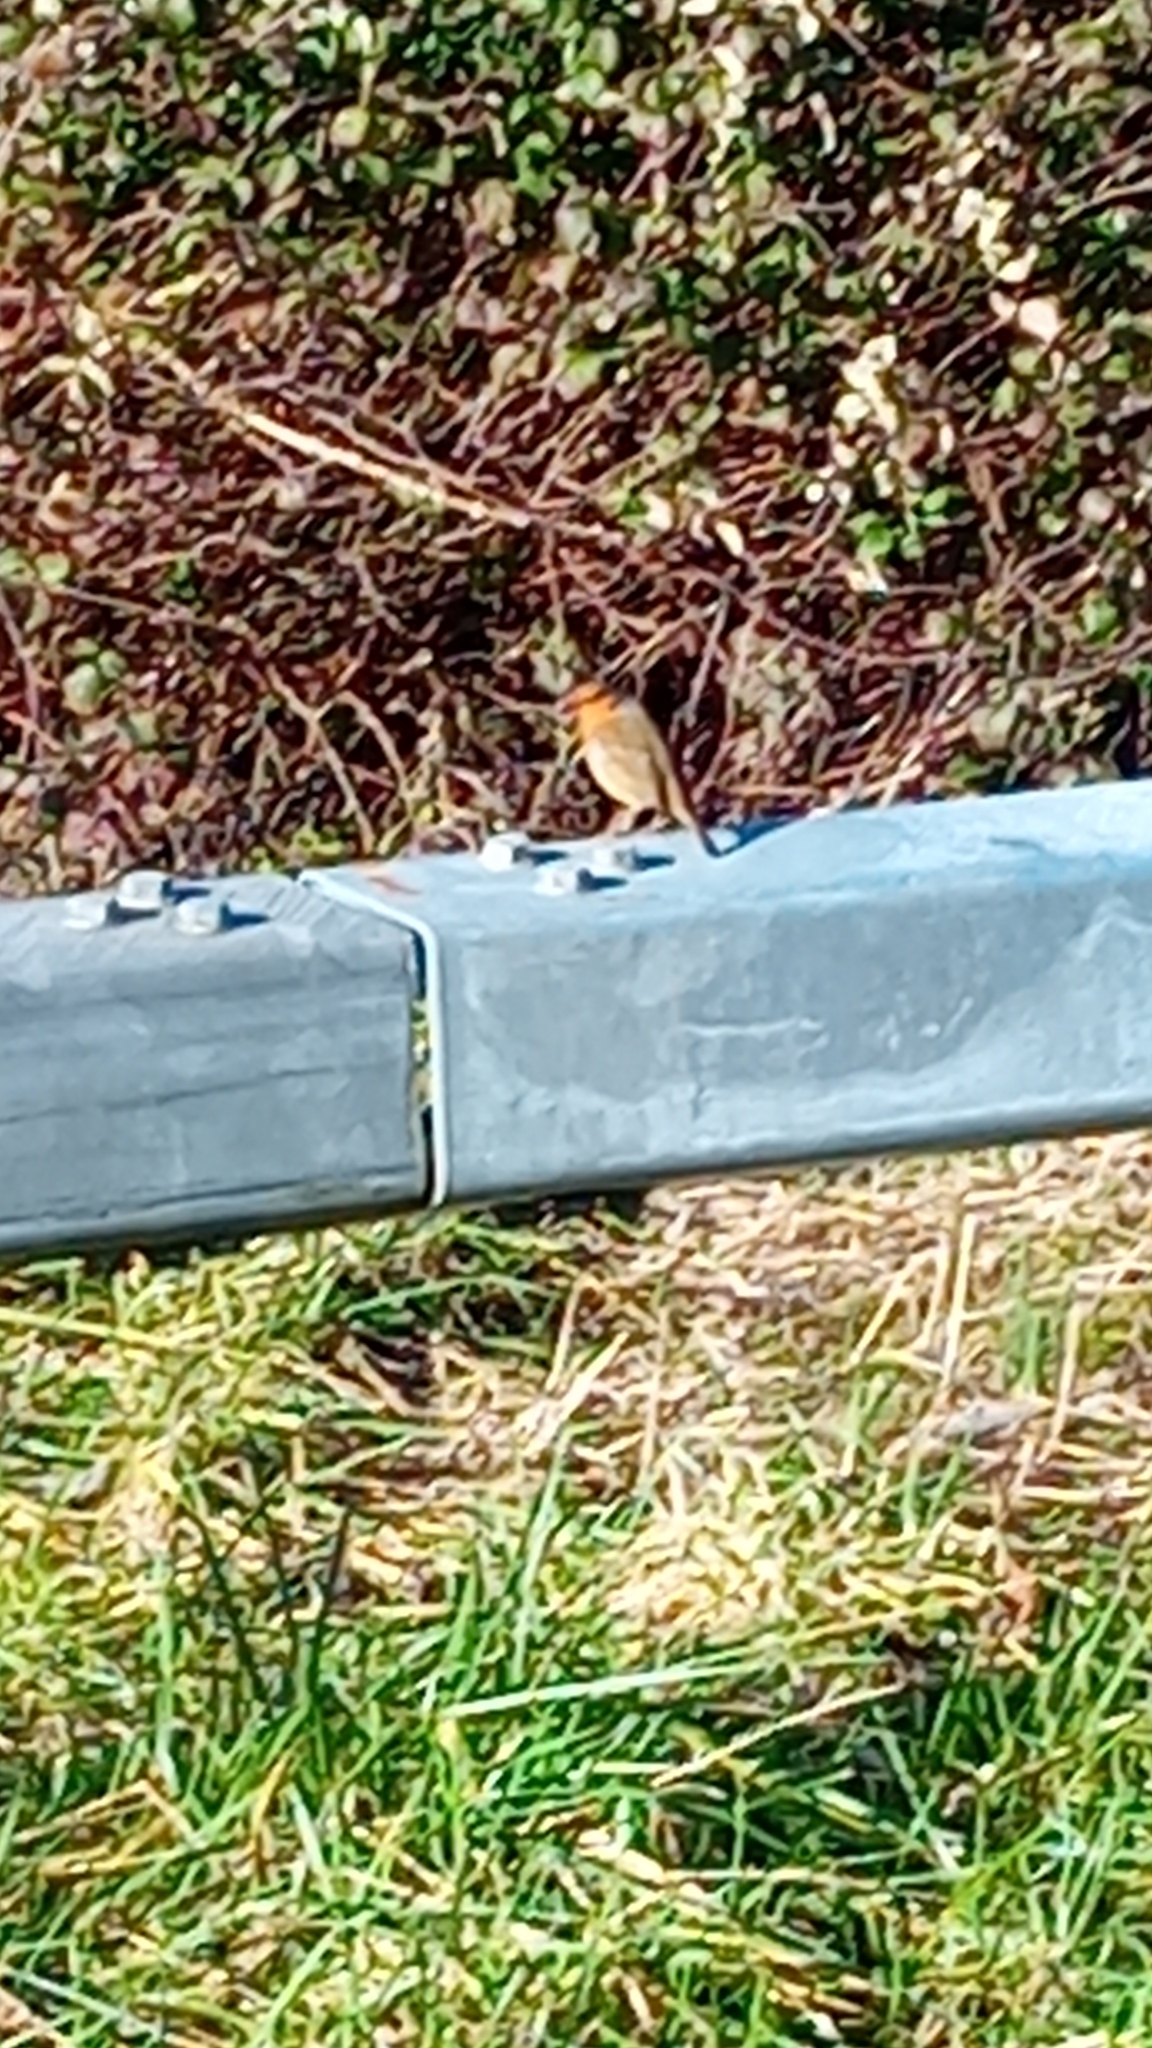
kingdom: Animalia
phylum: Chordata
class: Aves
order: Passeriformes
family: Muscicapidae
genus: Erithacus
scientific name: Erithacus rubecula
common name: European robin
